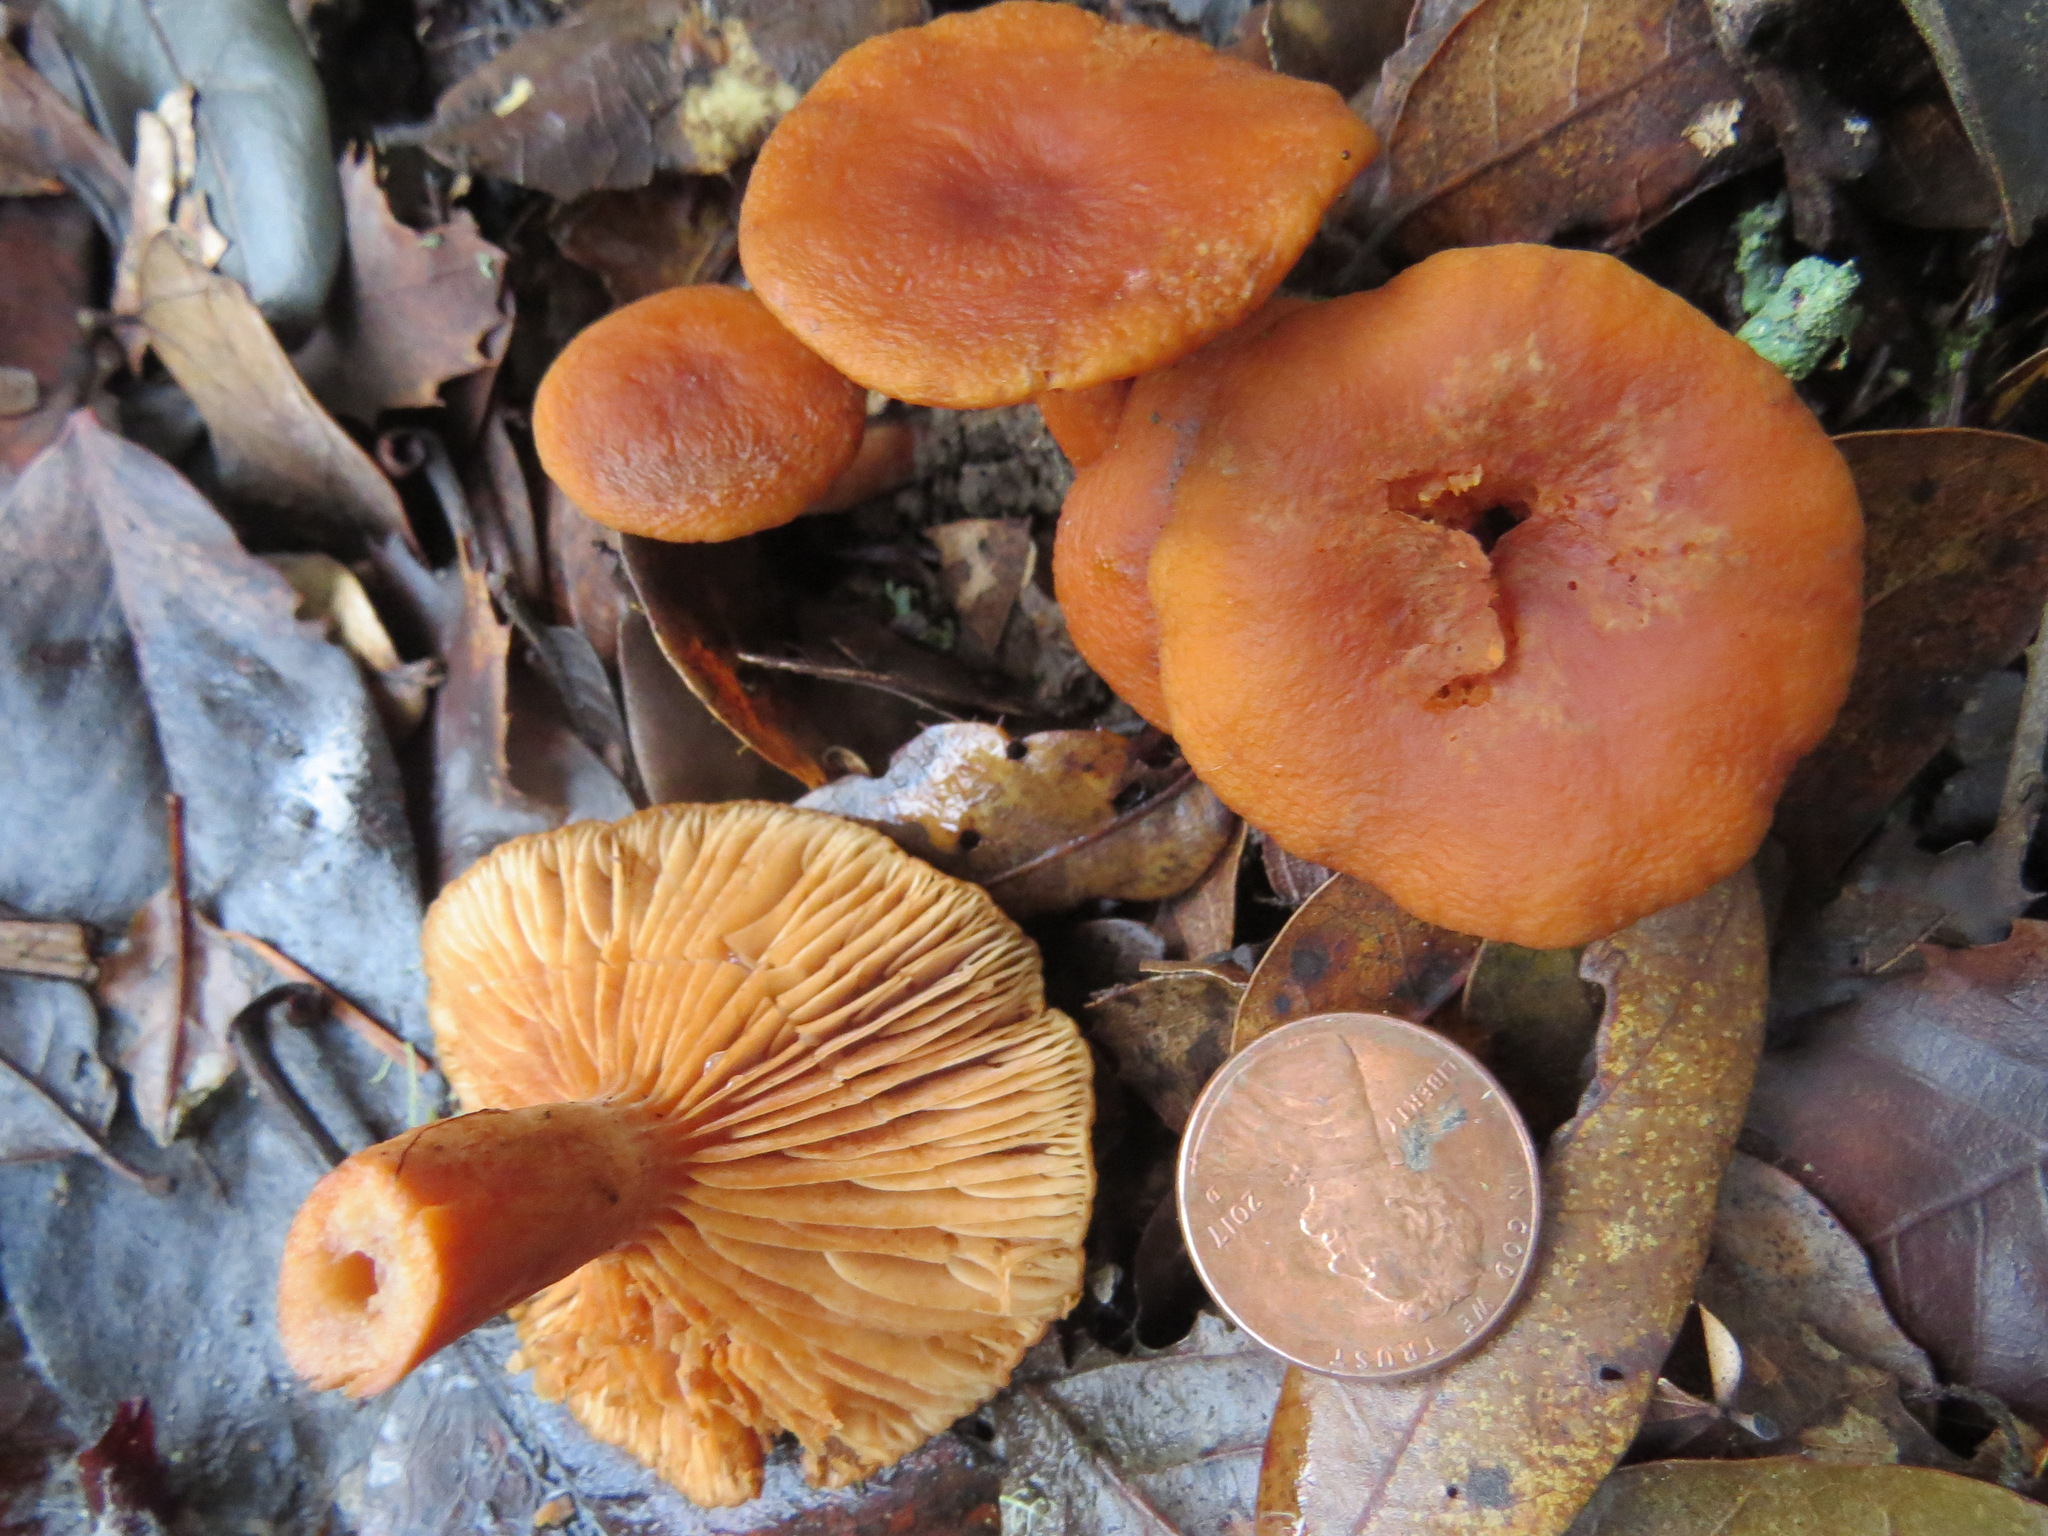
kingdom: Fungi
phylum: Basidiomycota
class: Agaricomycetes
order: Russulales
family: Russulaceae
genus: Lactarius
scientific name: Lactarius rubidus
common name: Candy cap
